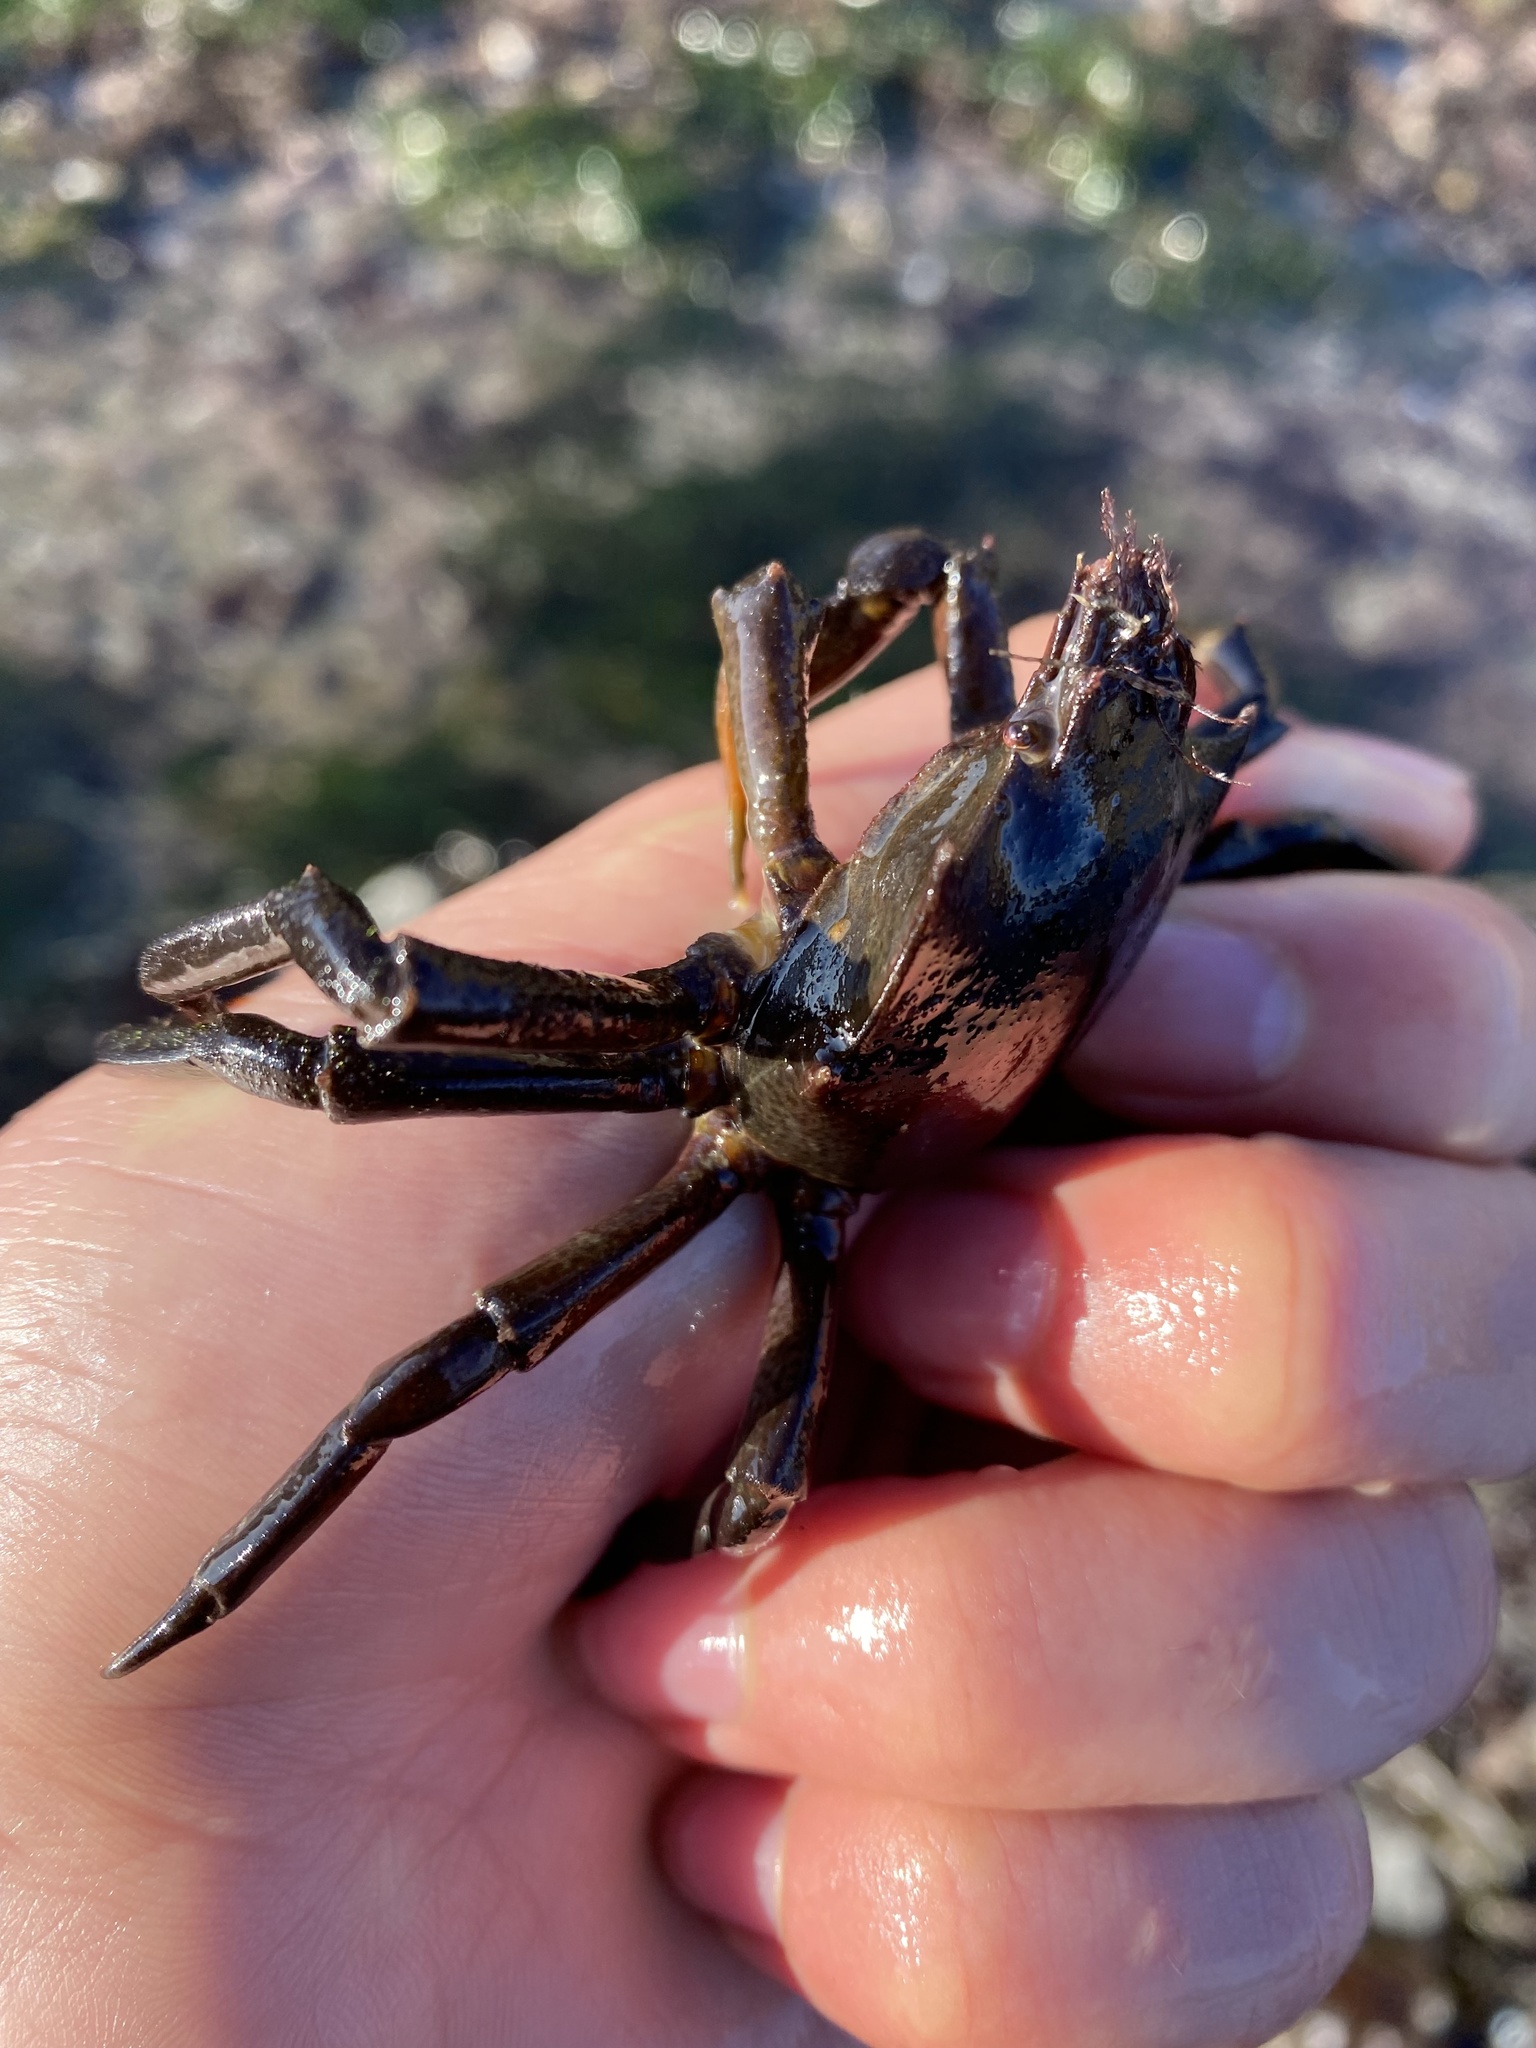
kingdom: Animalia
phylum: Arthropoda
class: Malacostraca
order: Decapoda
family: Epialtidae
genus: Pugettia
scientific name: Pugettia producta
